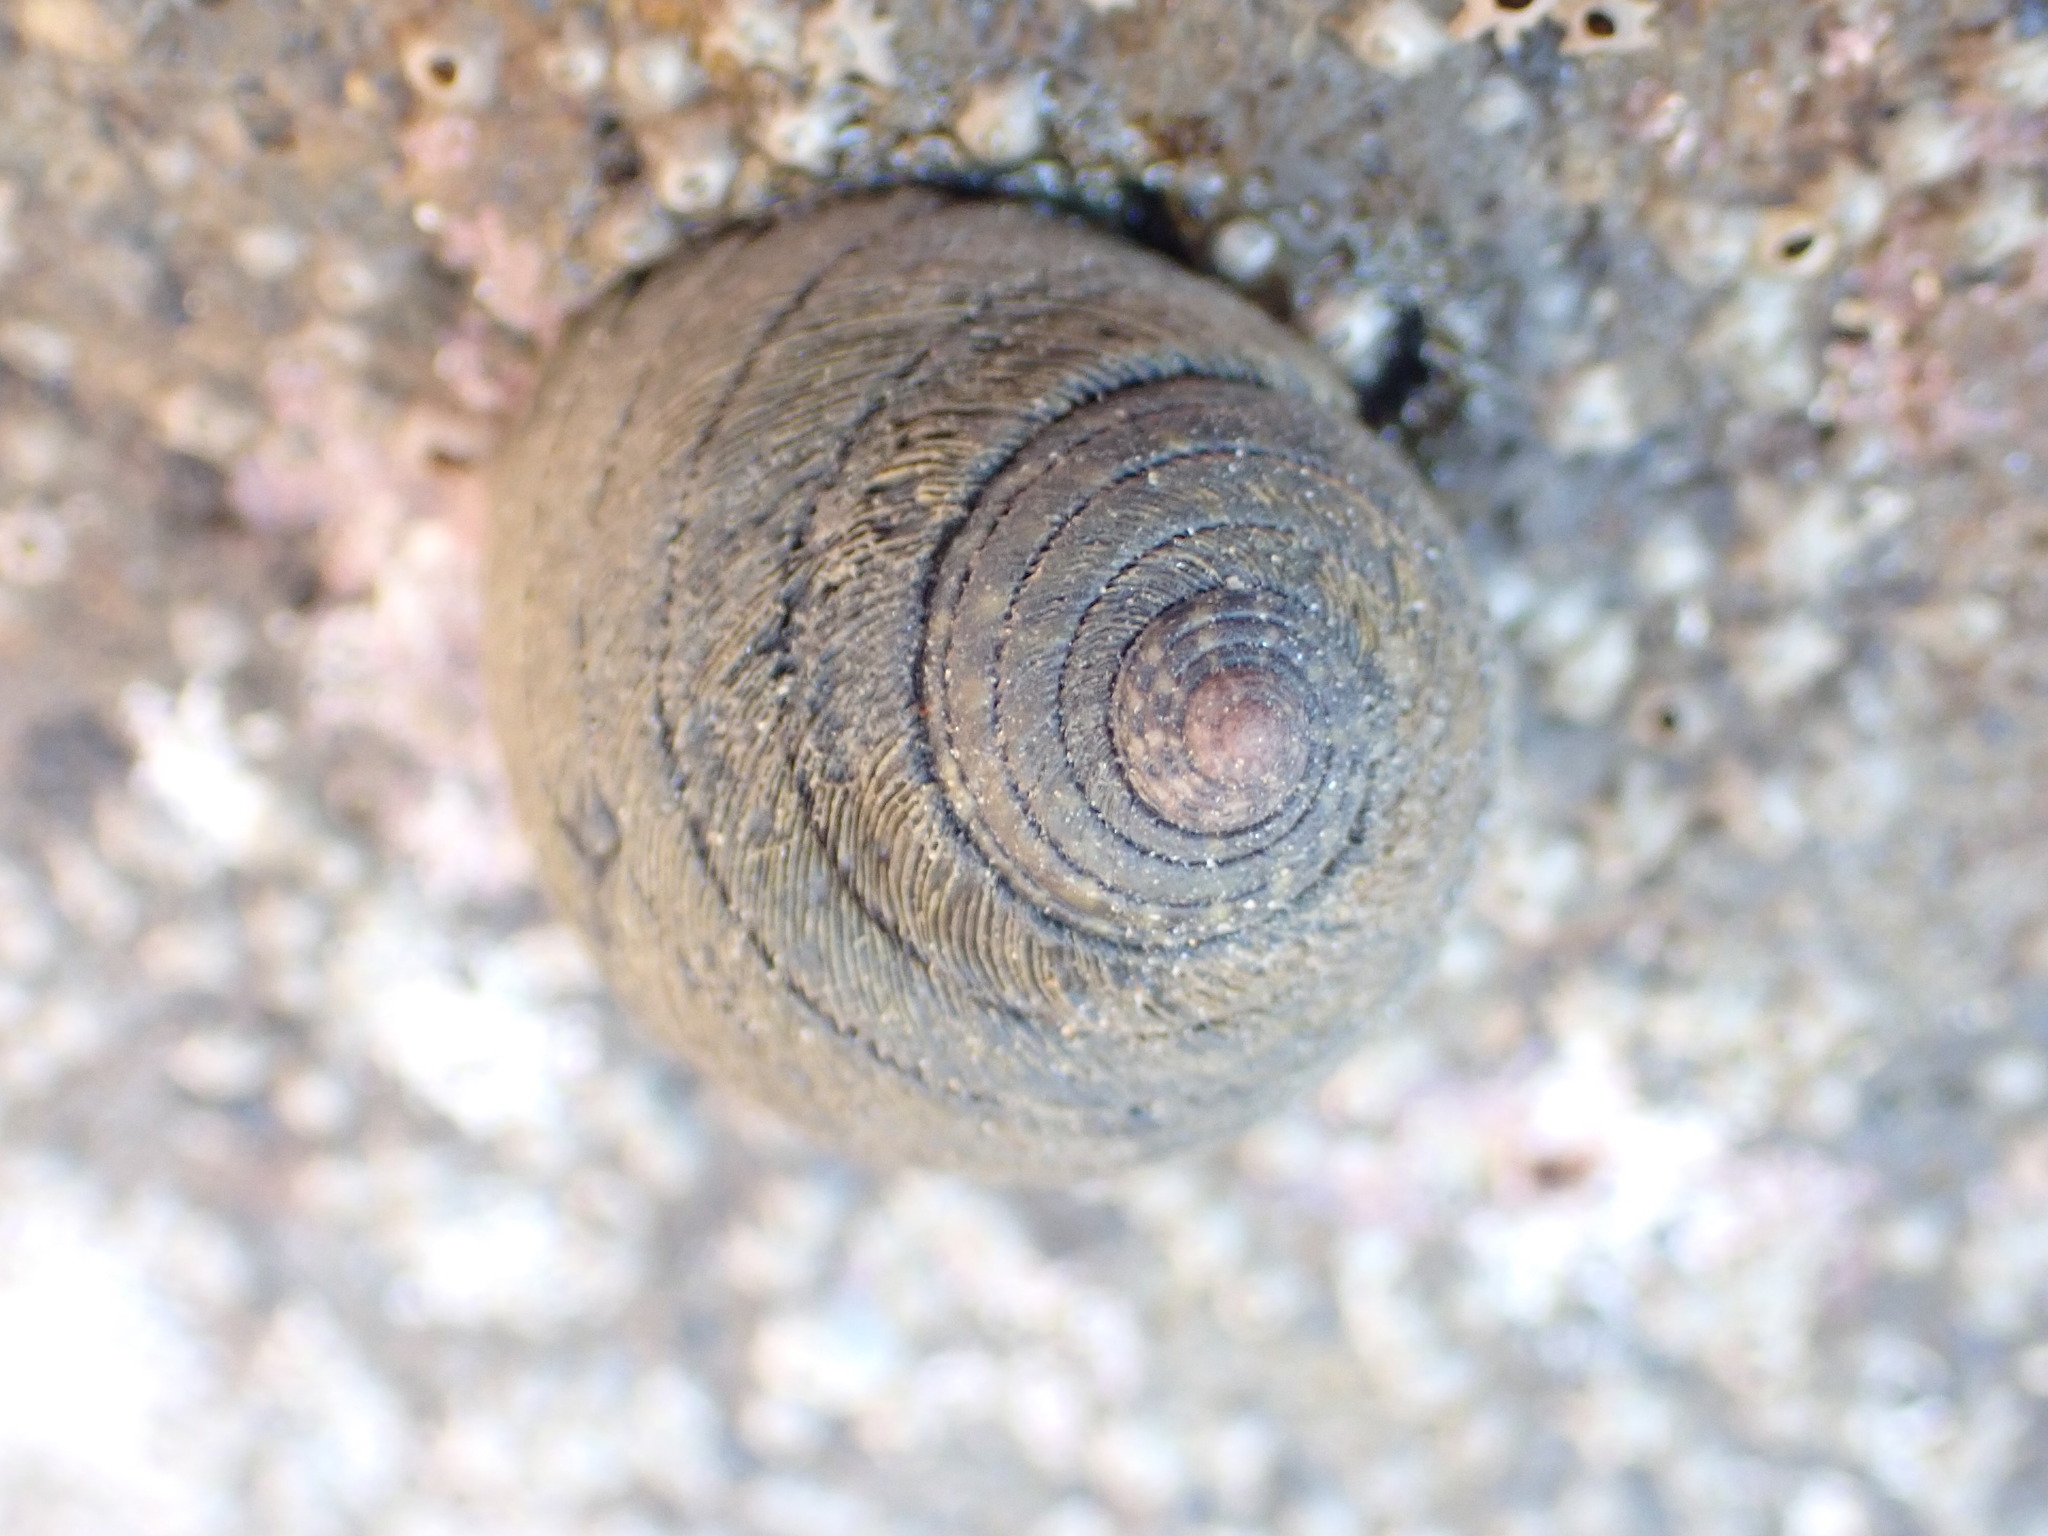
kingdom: Animalia
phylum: Mollusca
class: Gastropoda
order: Trochida
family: Trochidae
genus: Diloma
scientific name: Diloma aethiops
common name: Scorched monodont
